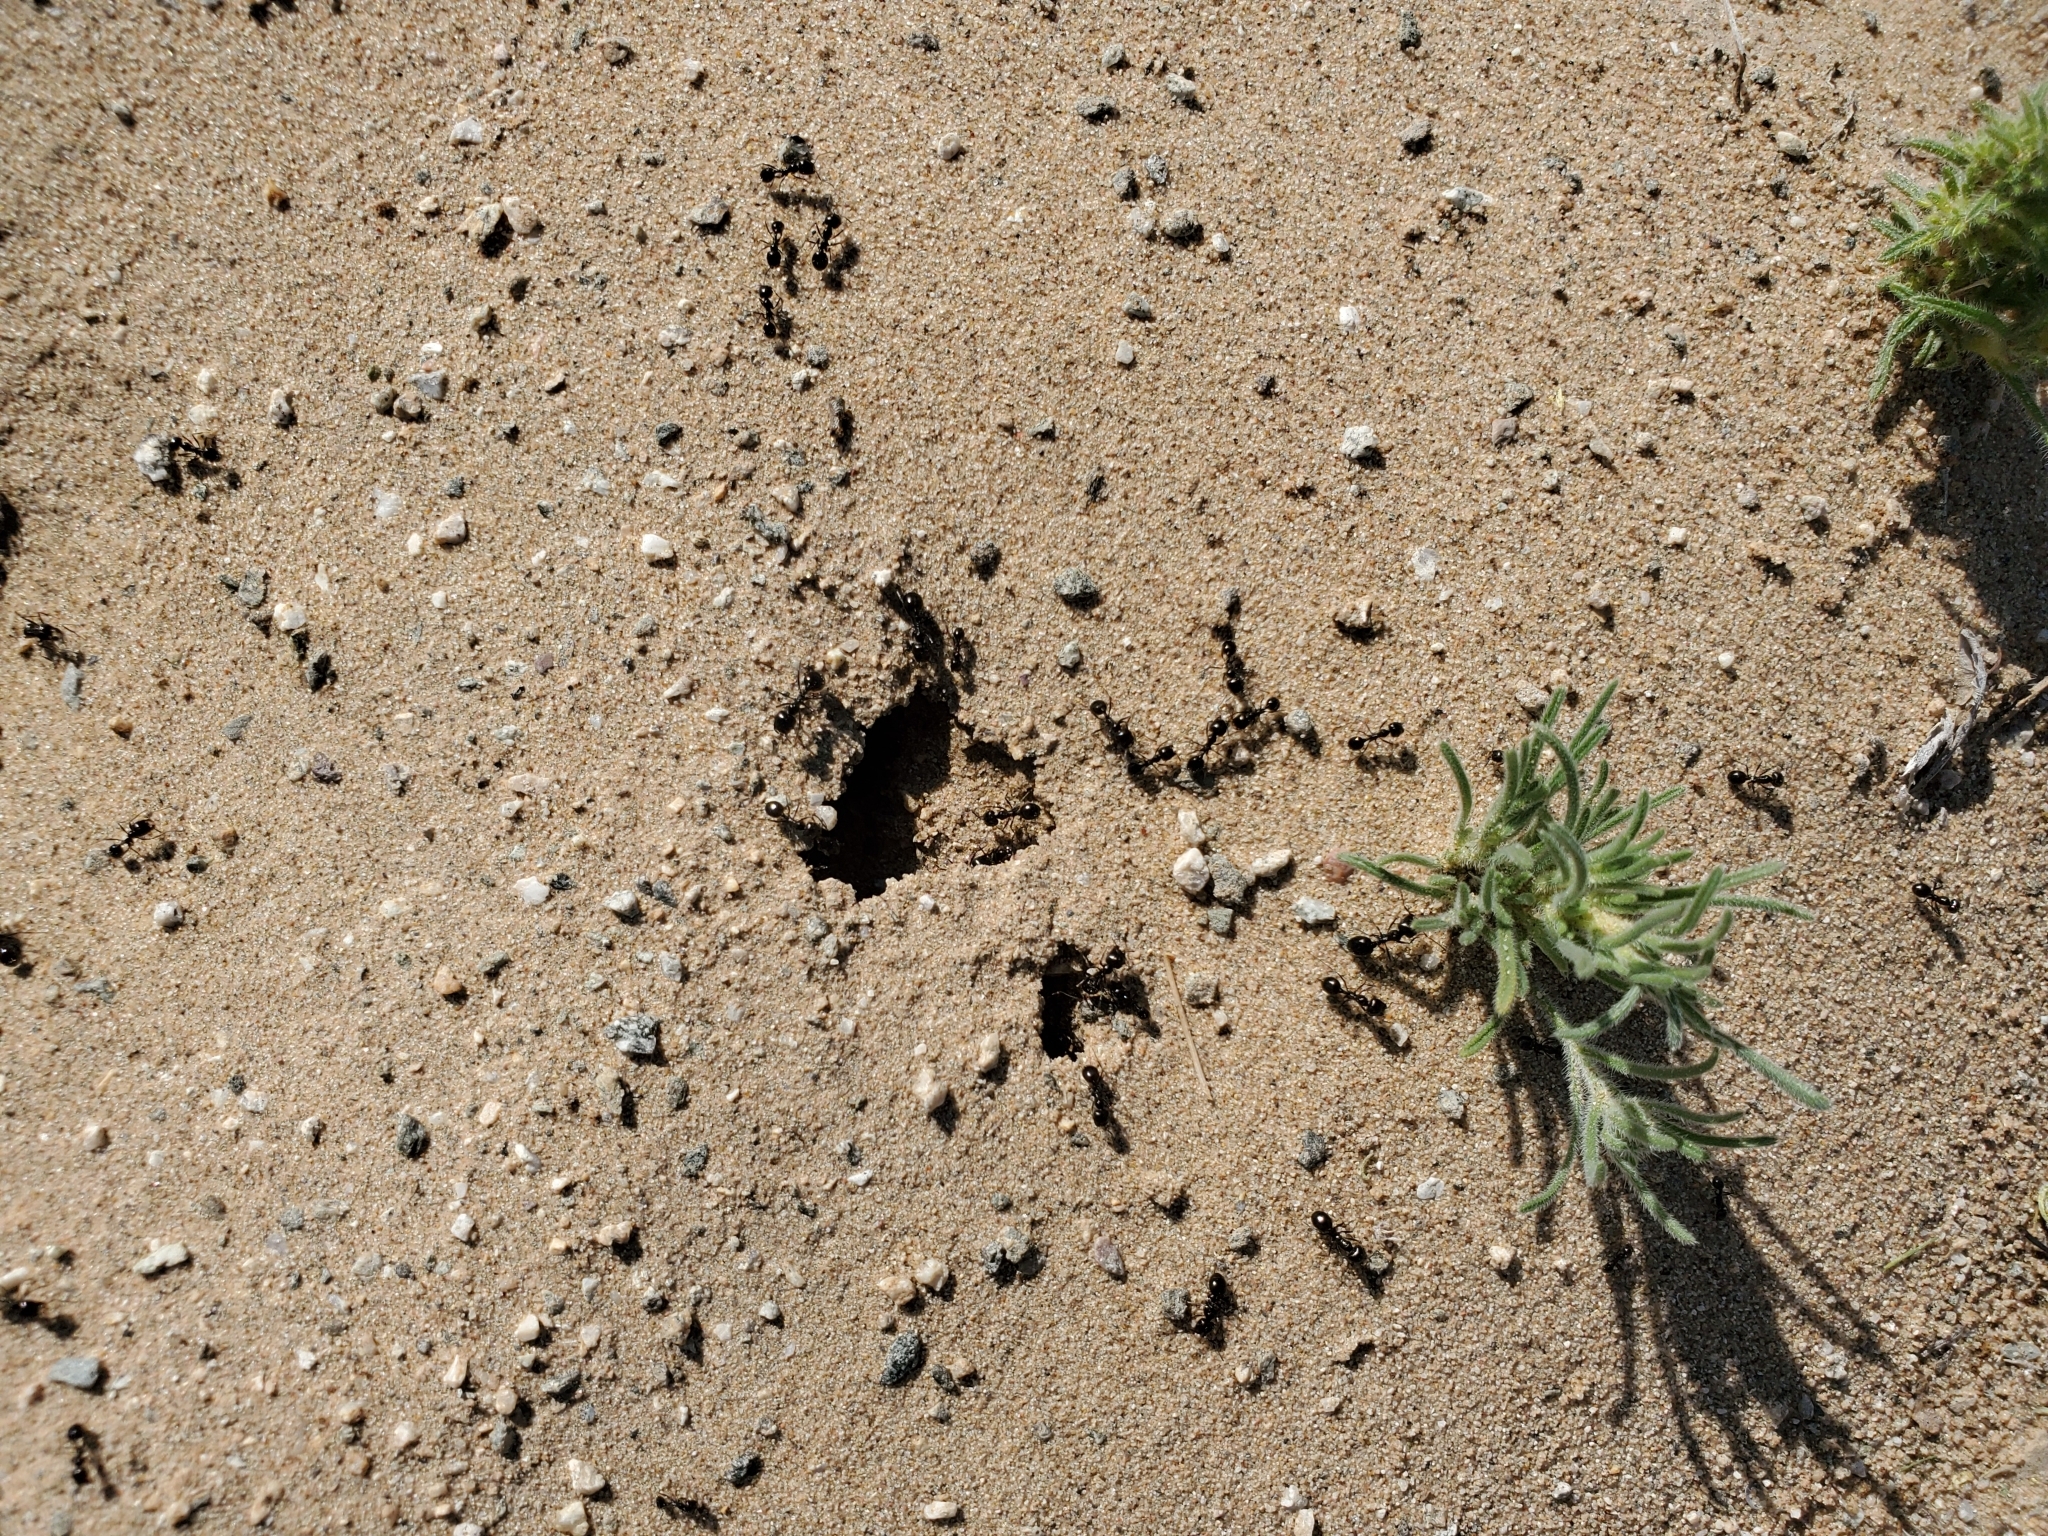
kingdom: Animalia
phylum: Arthropoda
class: Insecta
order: Hymenoptera
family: Formicidae
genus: Messor
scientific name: Messor pergandei
